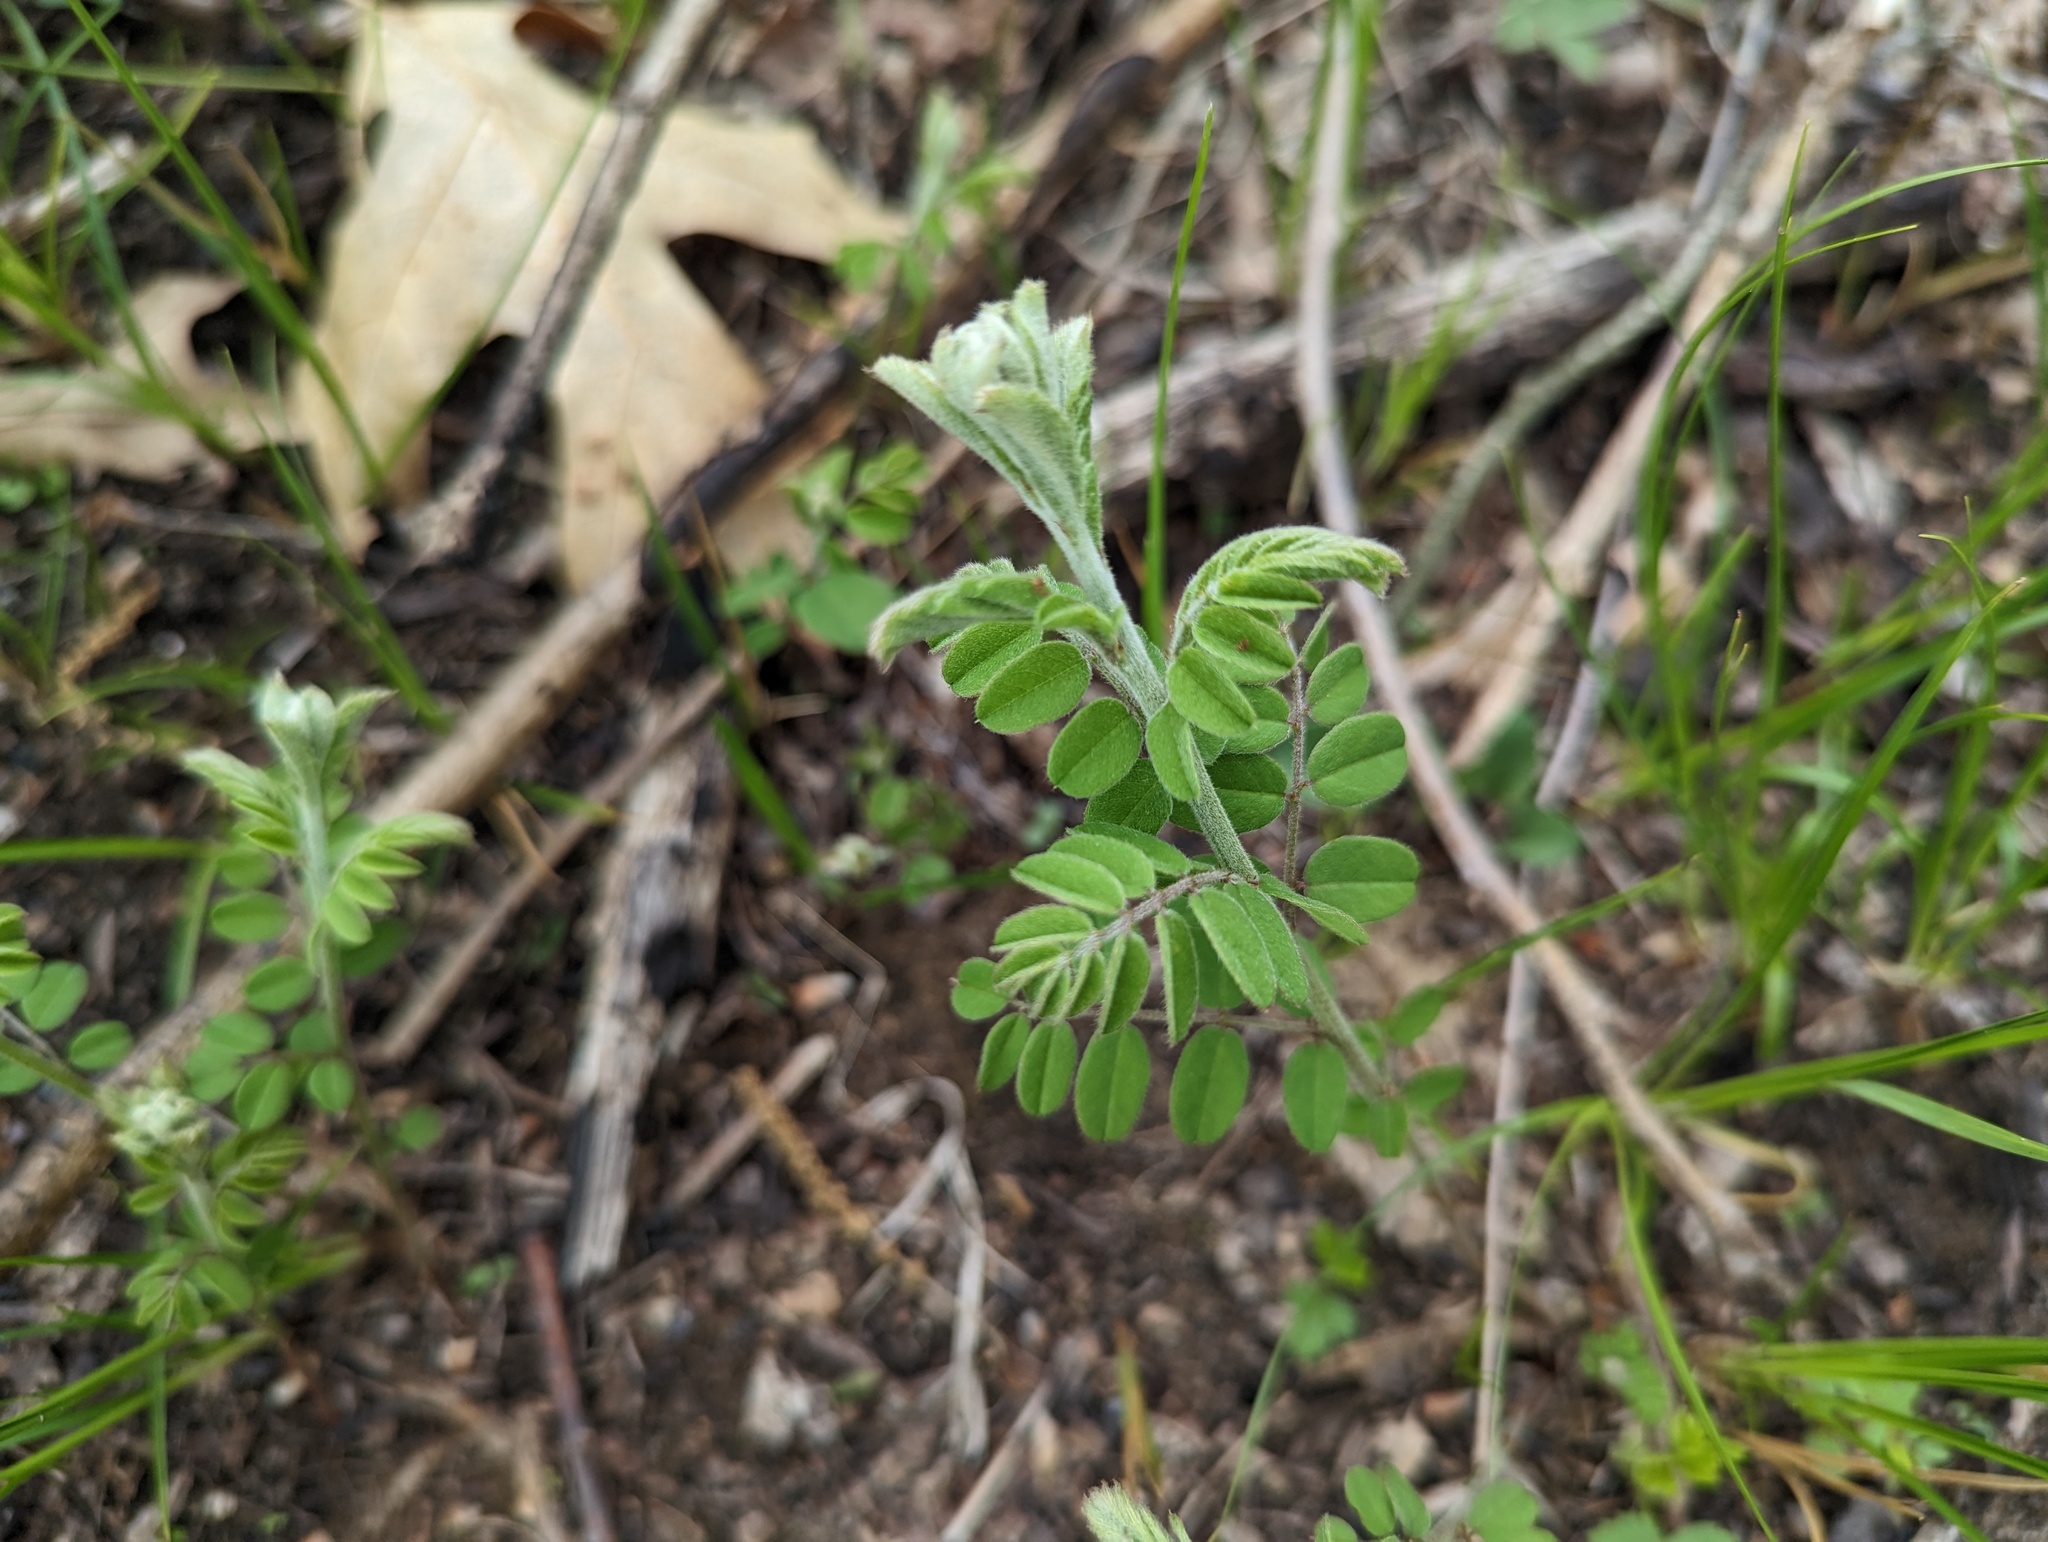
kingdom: Plantae
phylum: Tracheophyta
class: Magnoliopsida
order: Fabales
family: Fabaceae
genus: Amorpha
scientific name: Amorpha canescens
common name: Leadplant
